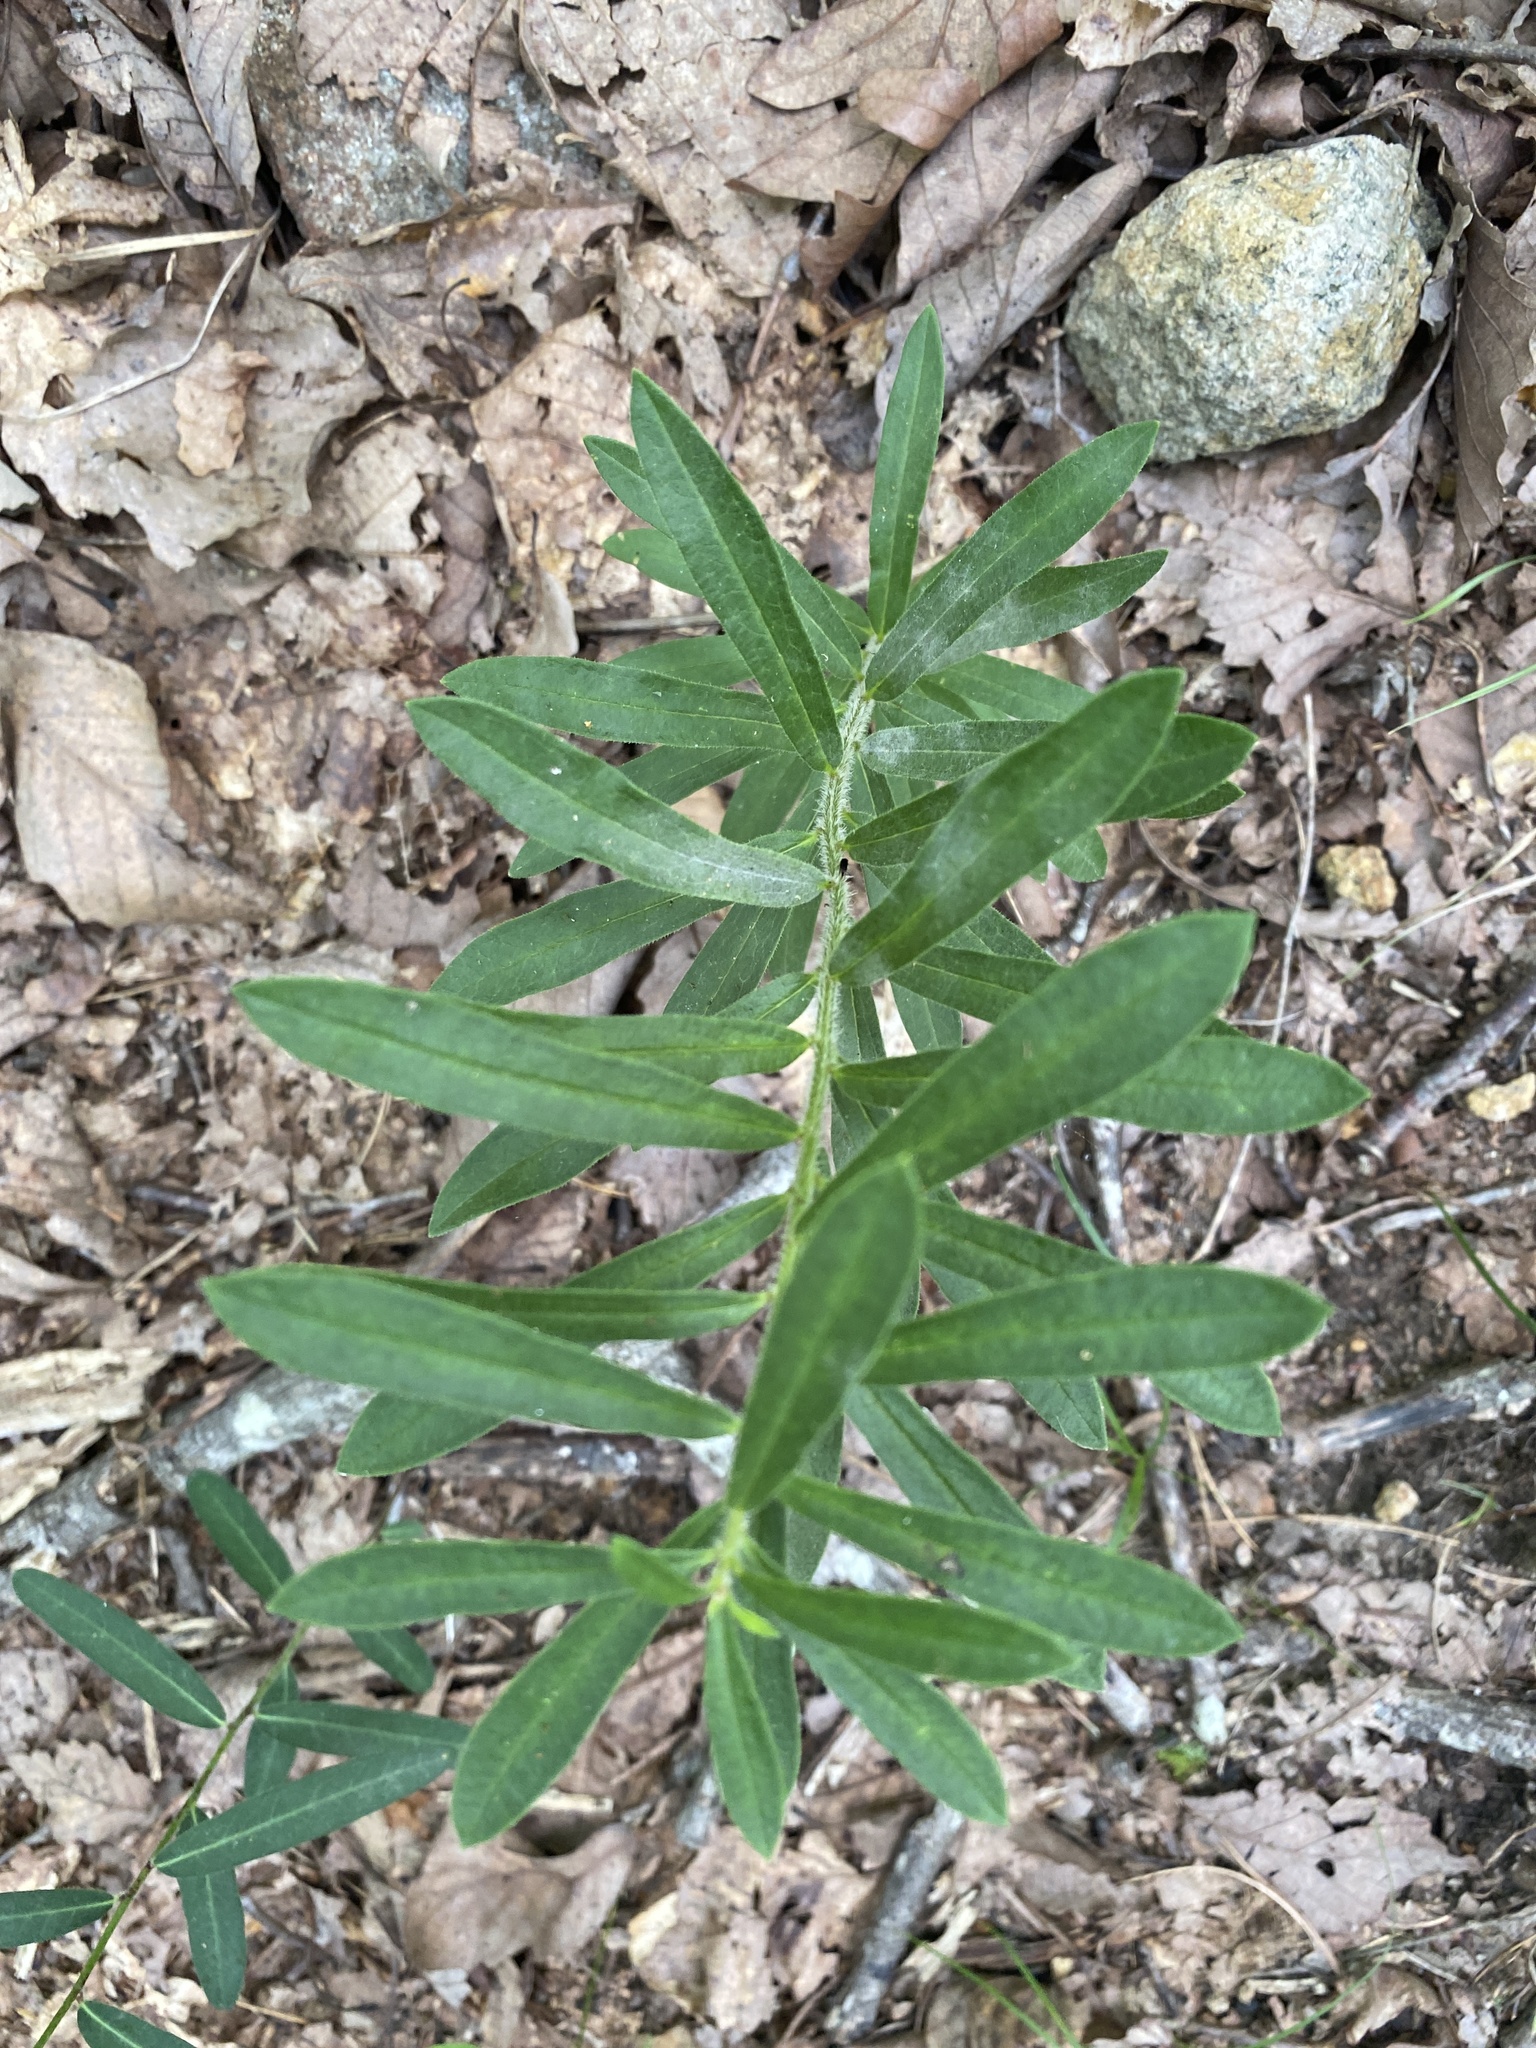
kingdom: Plantae
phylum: Tracheophyta
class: Magnoliopsida
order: Gentianales
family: Apocynaceae
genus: Asclepias
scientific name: Asclepias tuberosa
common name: Butterfly milkweed
